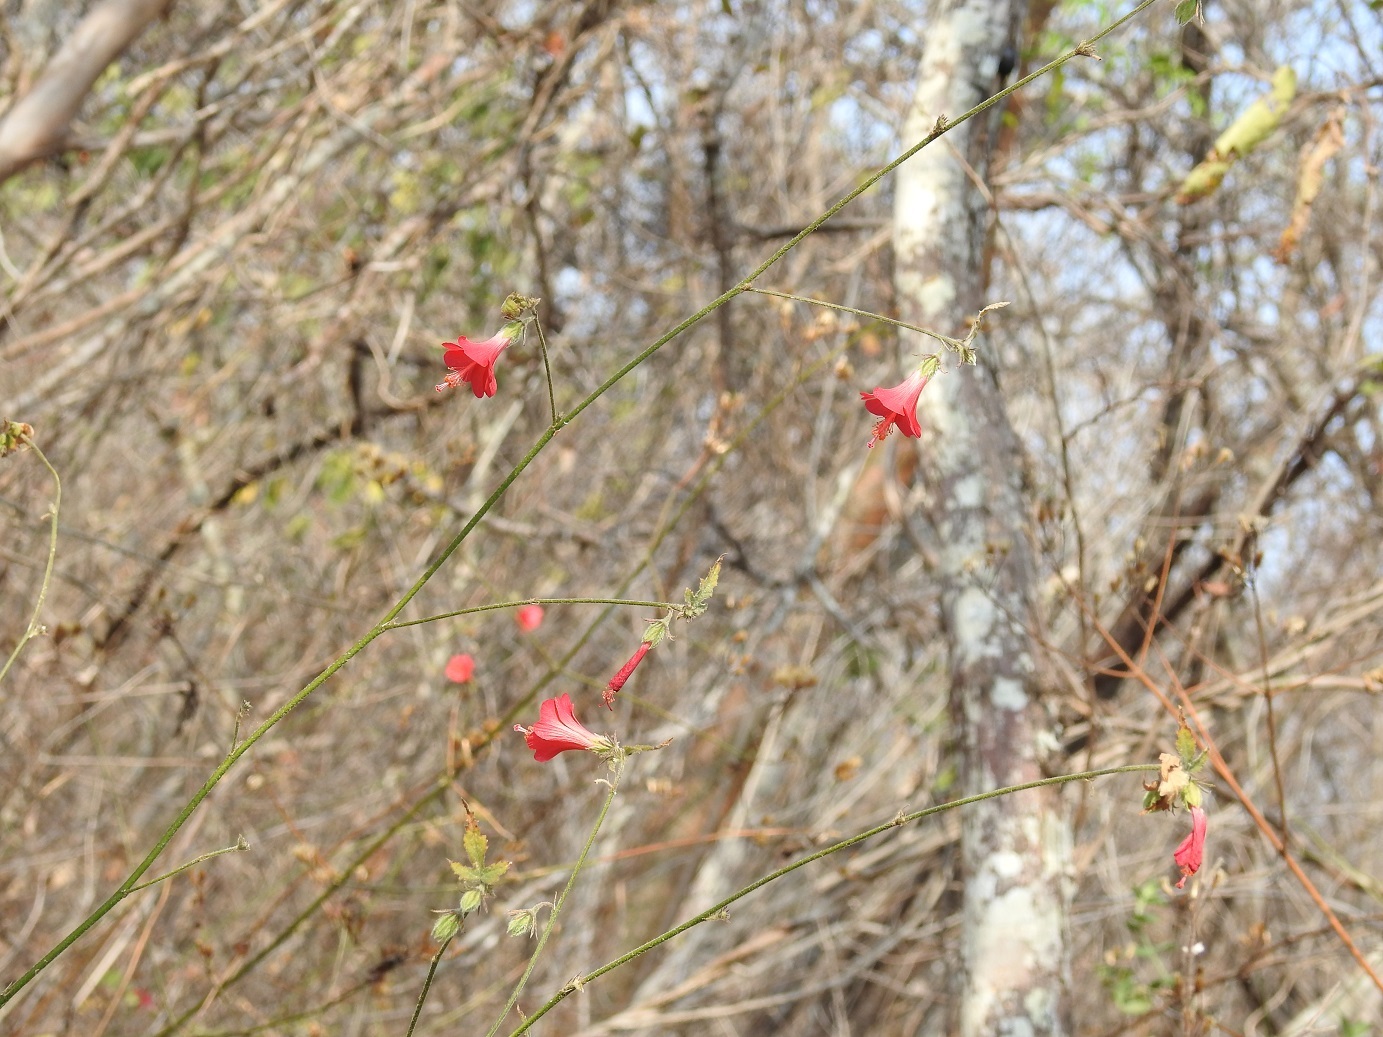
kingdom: Plantae
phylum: Tracheophyta
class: Magnoliopsida
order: Malvales
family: Malvaceae
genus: Hibiscus
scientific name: Hibiscus poeppigii
